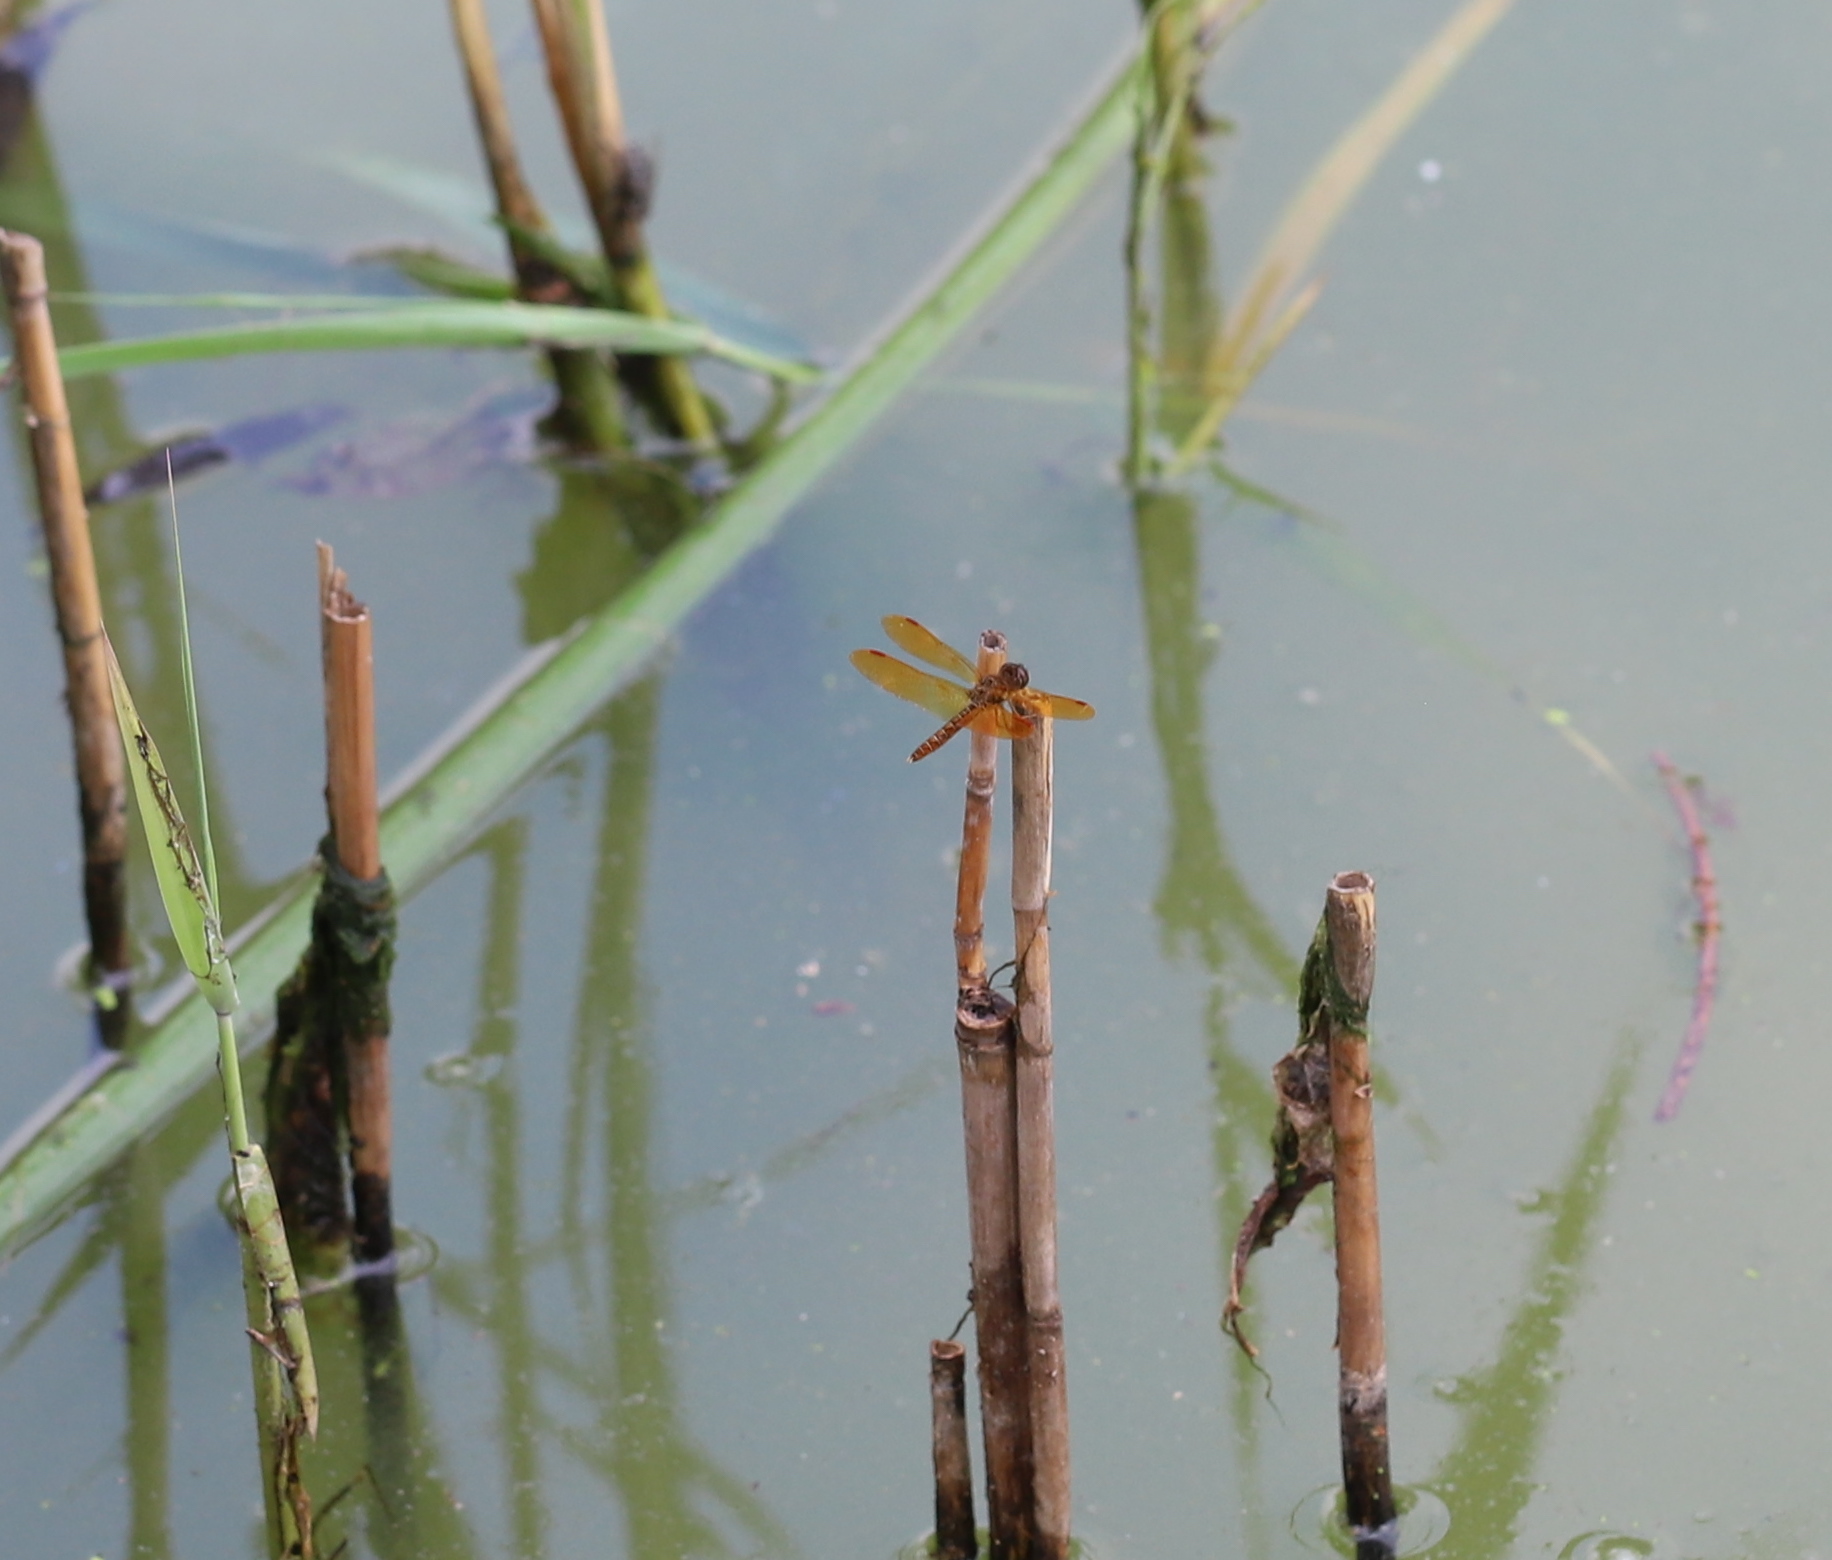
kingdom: Animalia
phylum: Arthropoda
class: Insecta
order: Odonata
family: Libellulidae
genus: Perithemis
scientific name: Perithemis tenera
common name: Eastern amberwing
